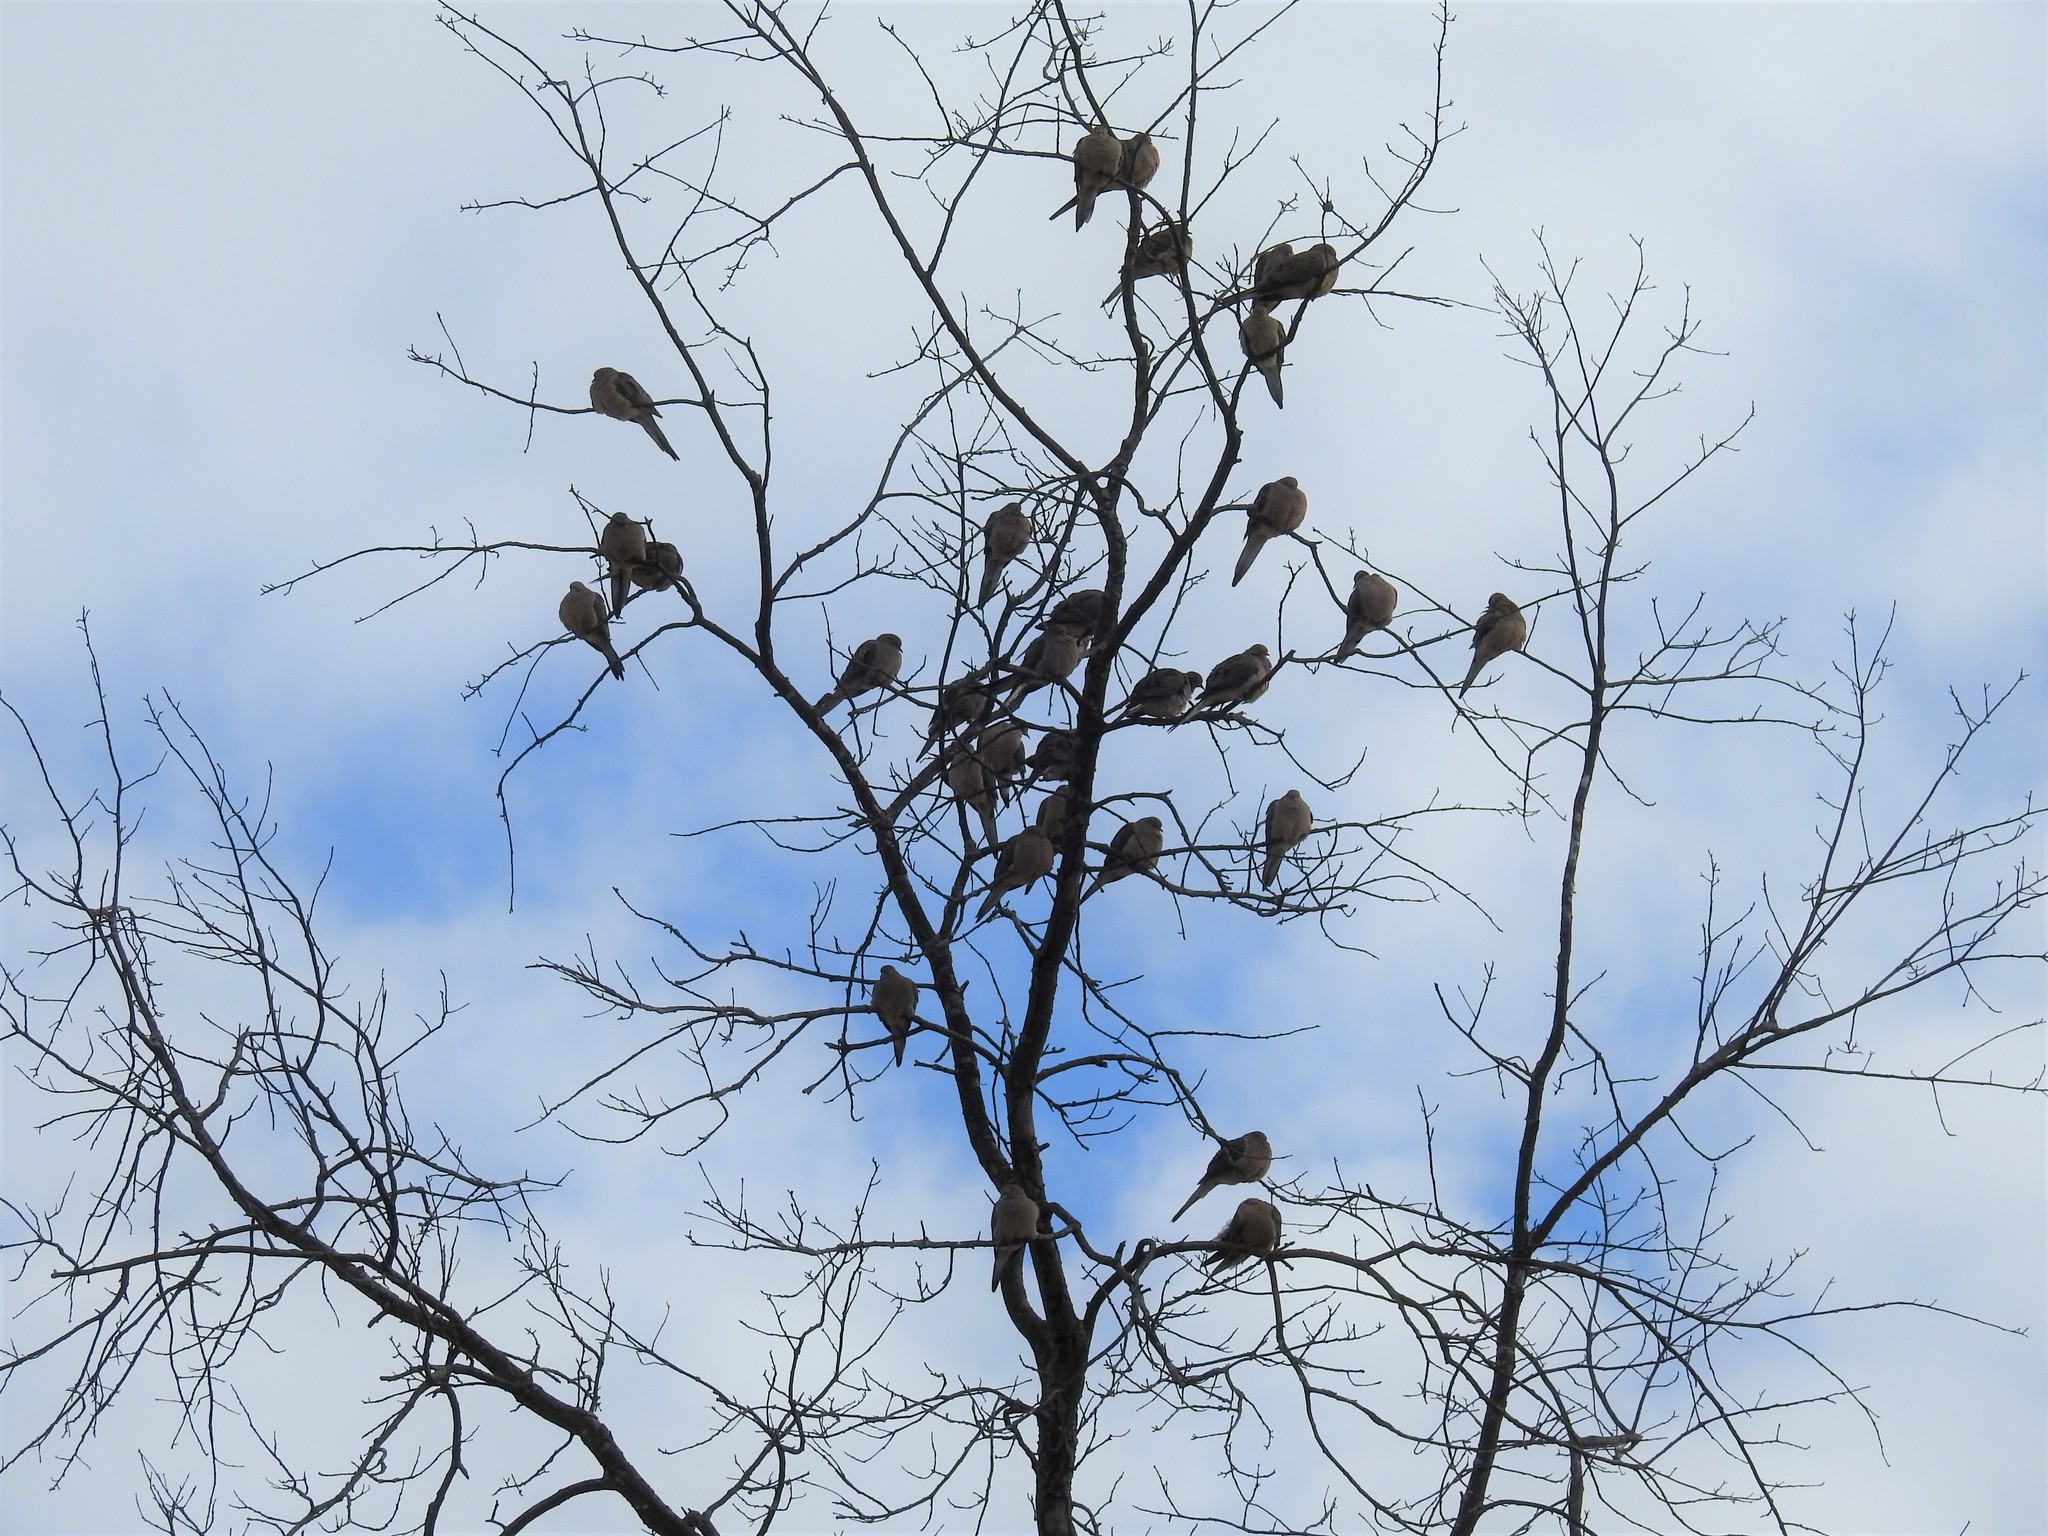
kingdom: Animalia
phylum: Chordata
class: Aves
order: Columbiformes
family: Columbidae
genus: Zenaida
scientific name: Zenaida macroura
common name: Mourning dove
